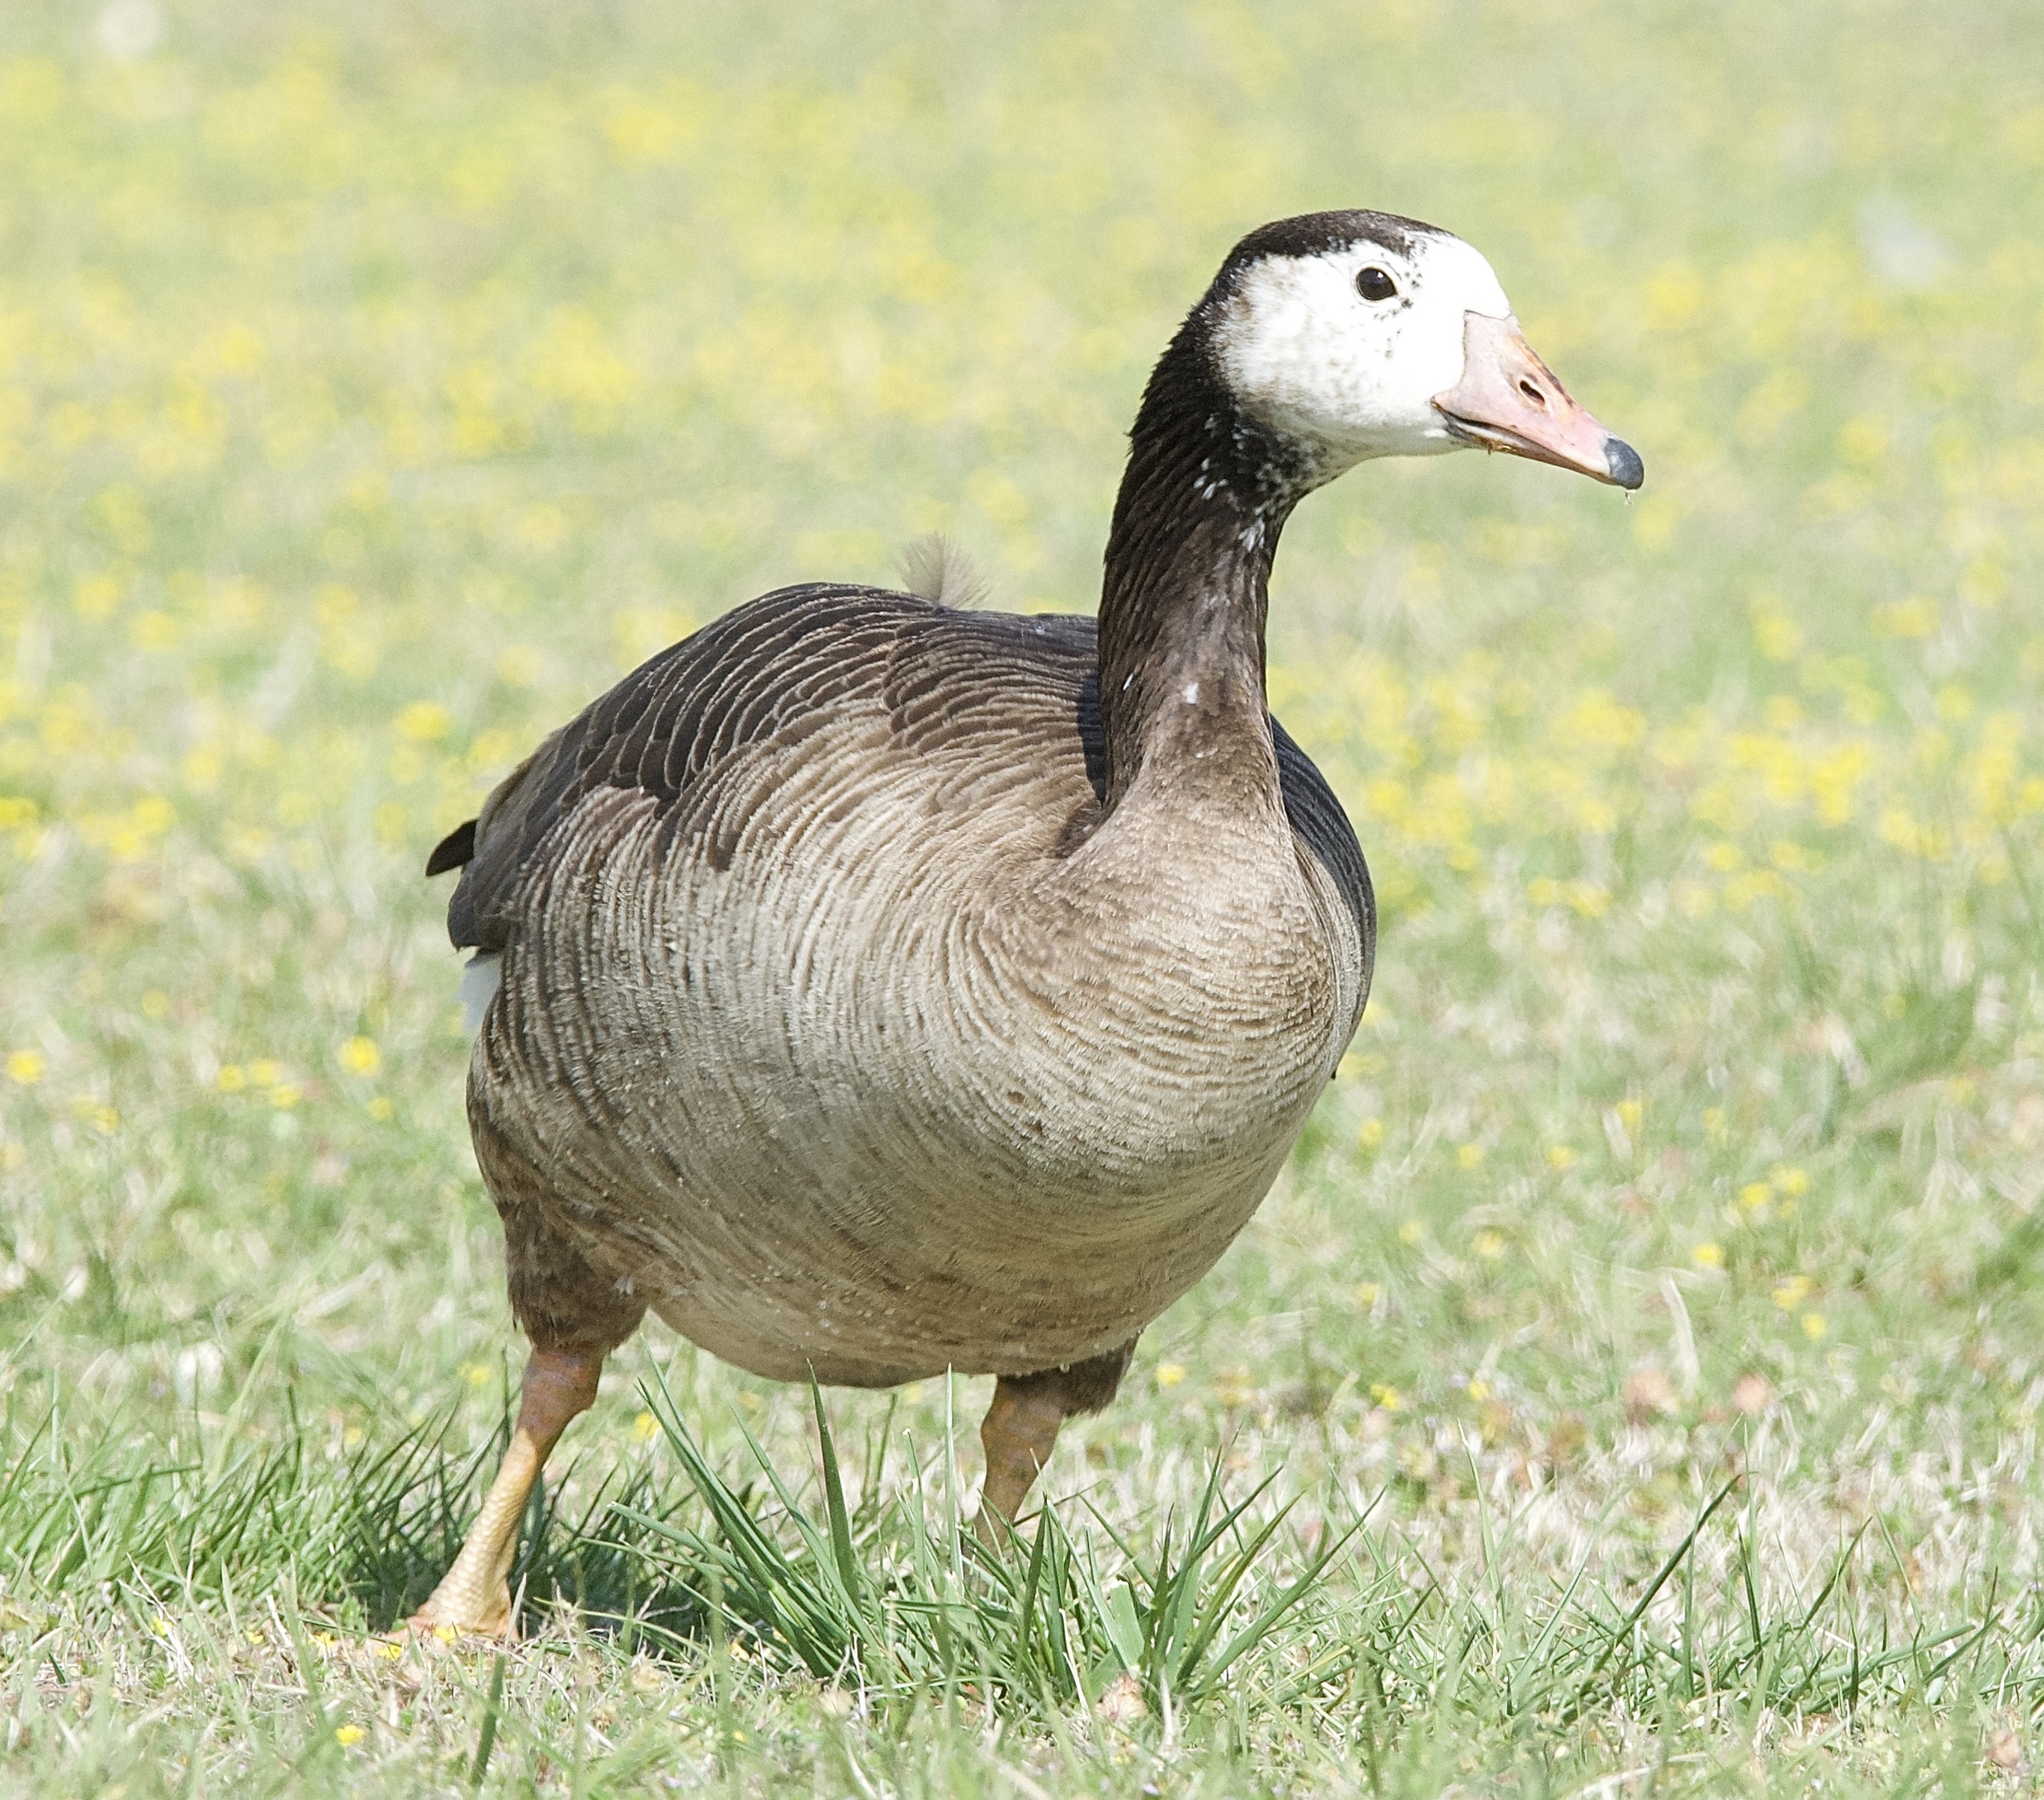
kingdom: Animalia
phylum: Chordata
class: Aves
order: Anseriformes
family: Anatidae
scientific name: Anatidae
